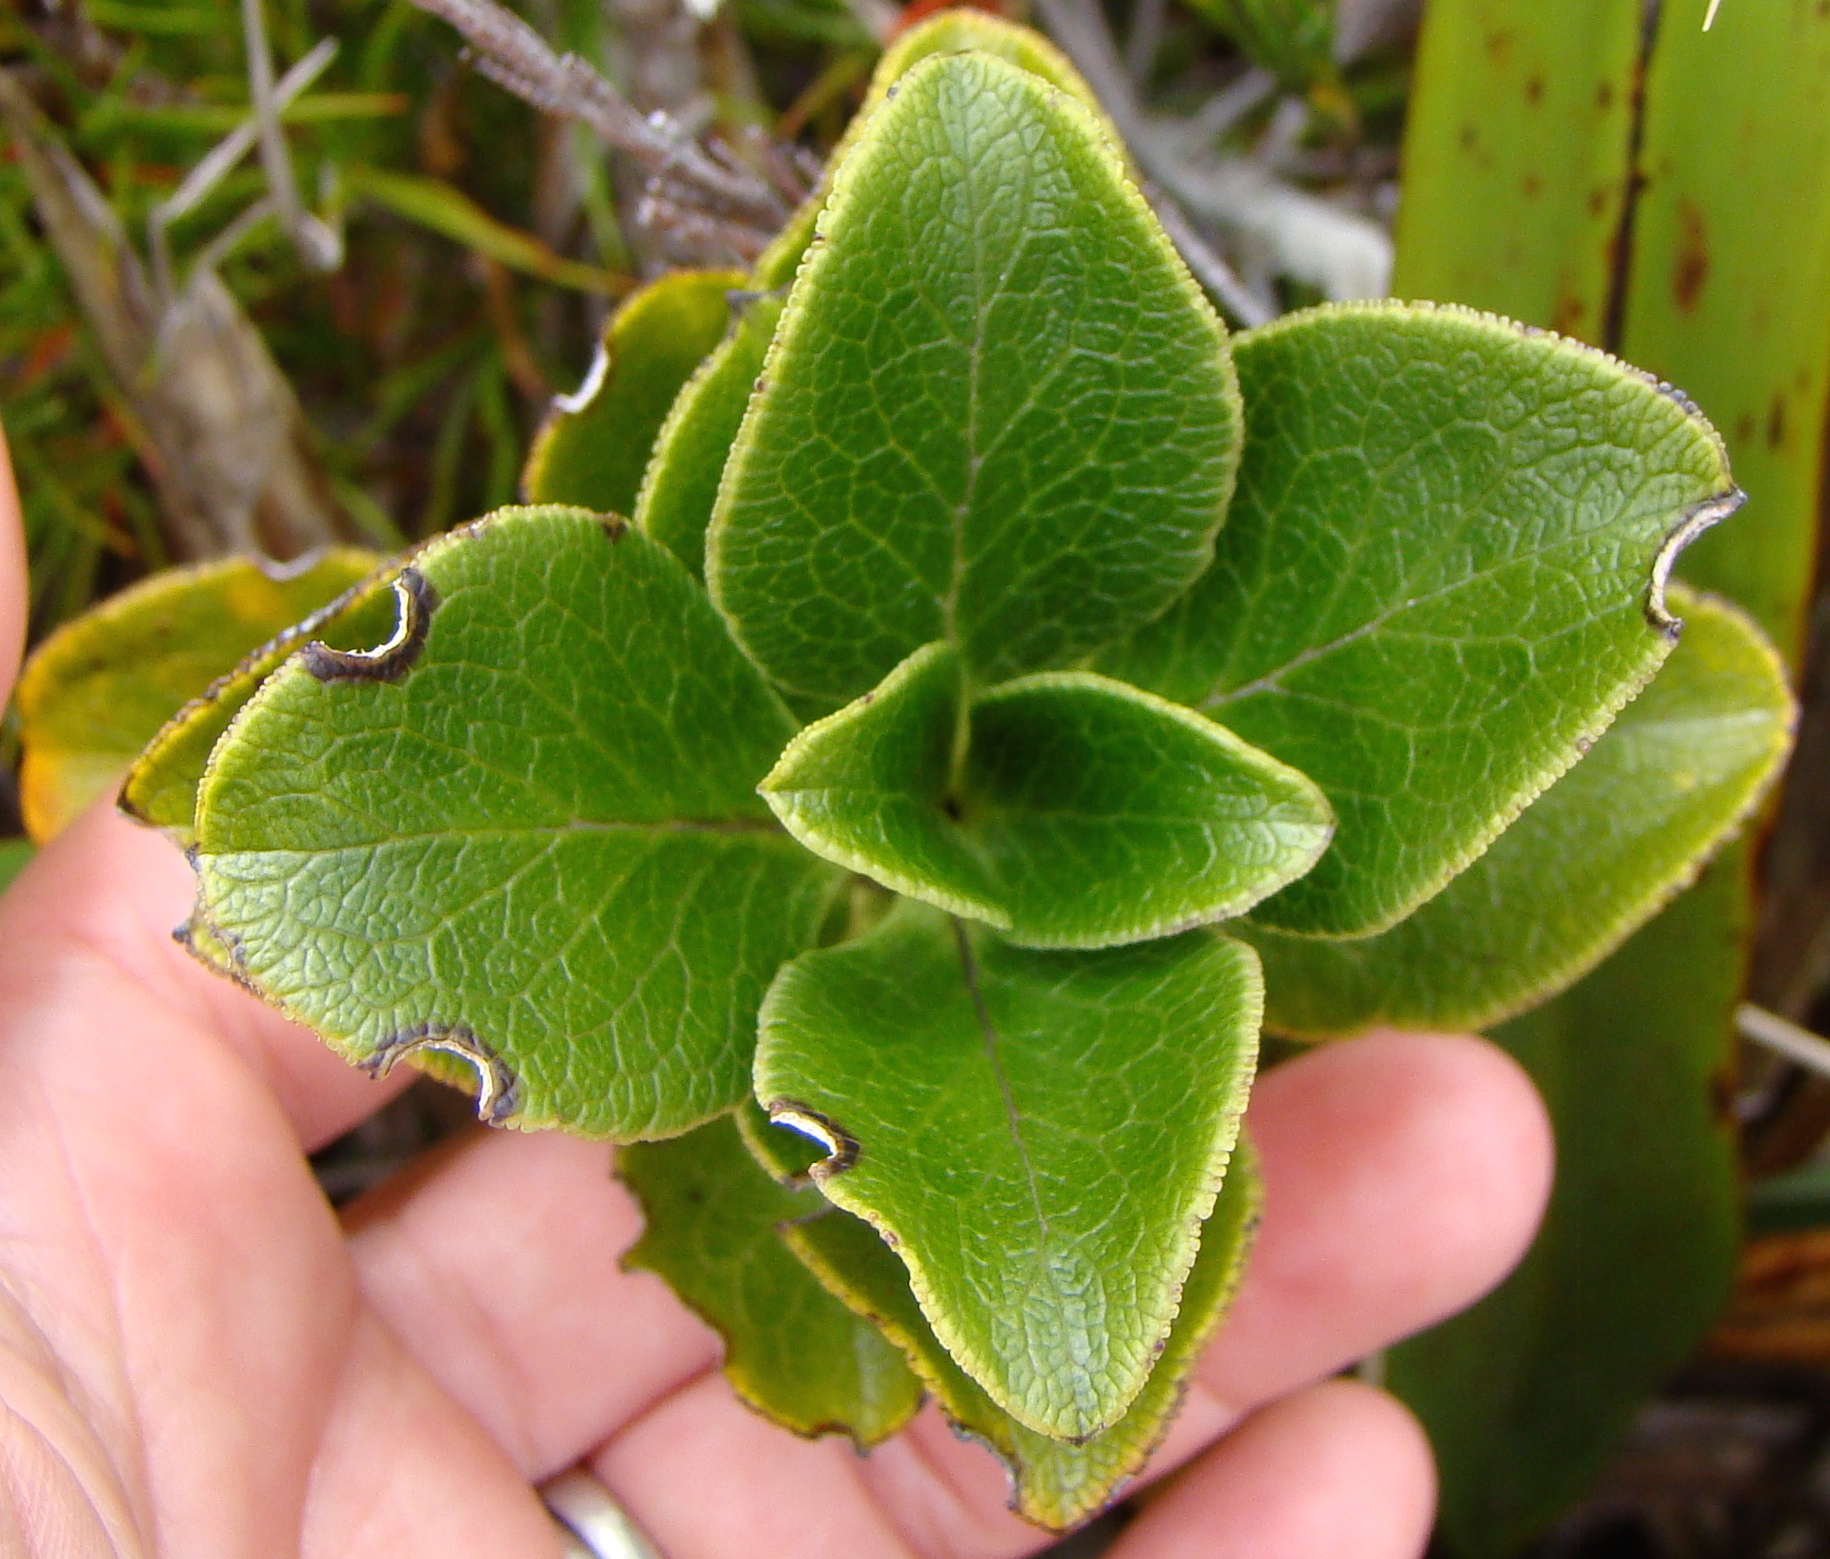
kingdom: Plantae
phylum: Tracheophyta
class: Magnoliopsida
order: Gentianales
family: Rubiaceae
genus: Coprosma
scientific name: Coprosma serrulata
